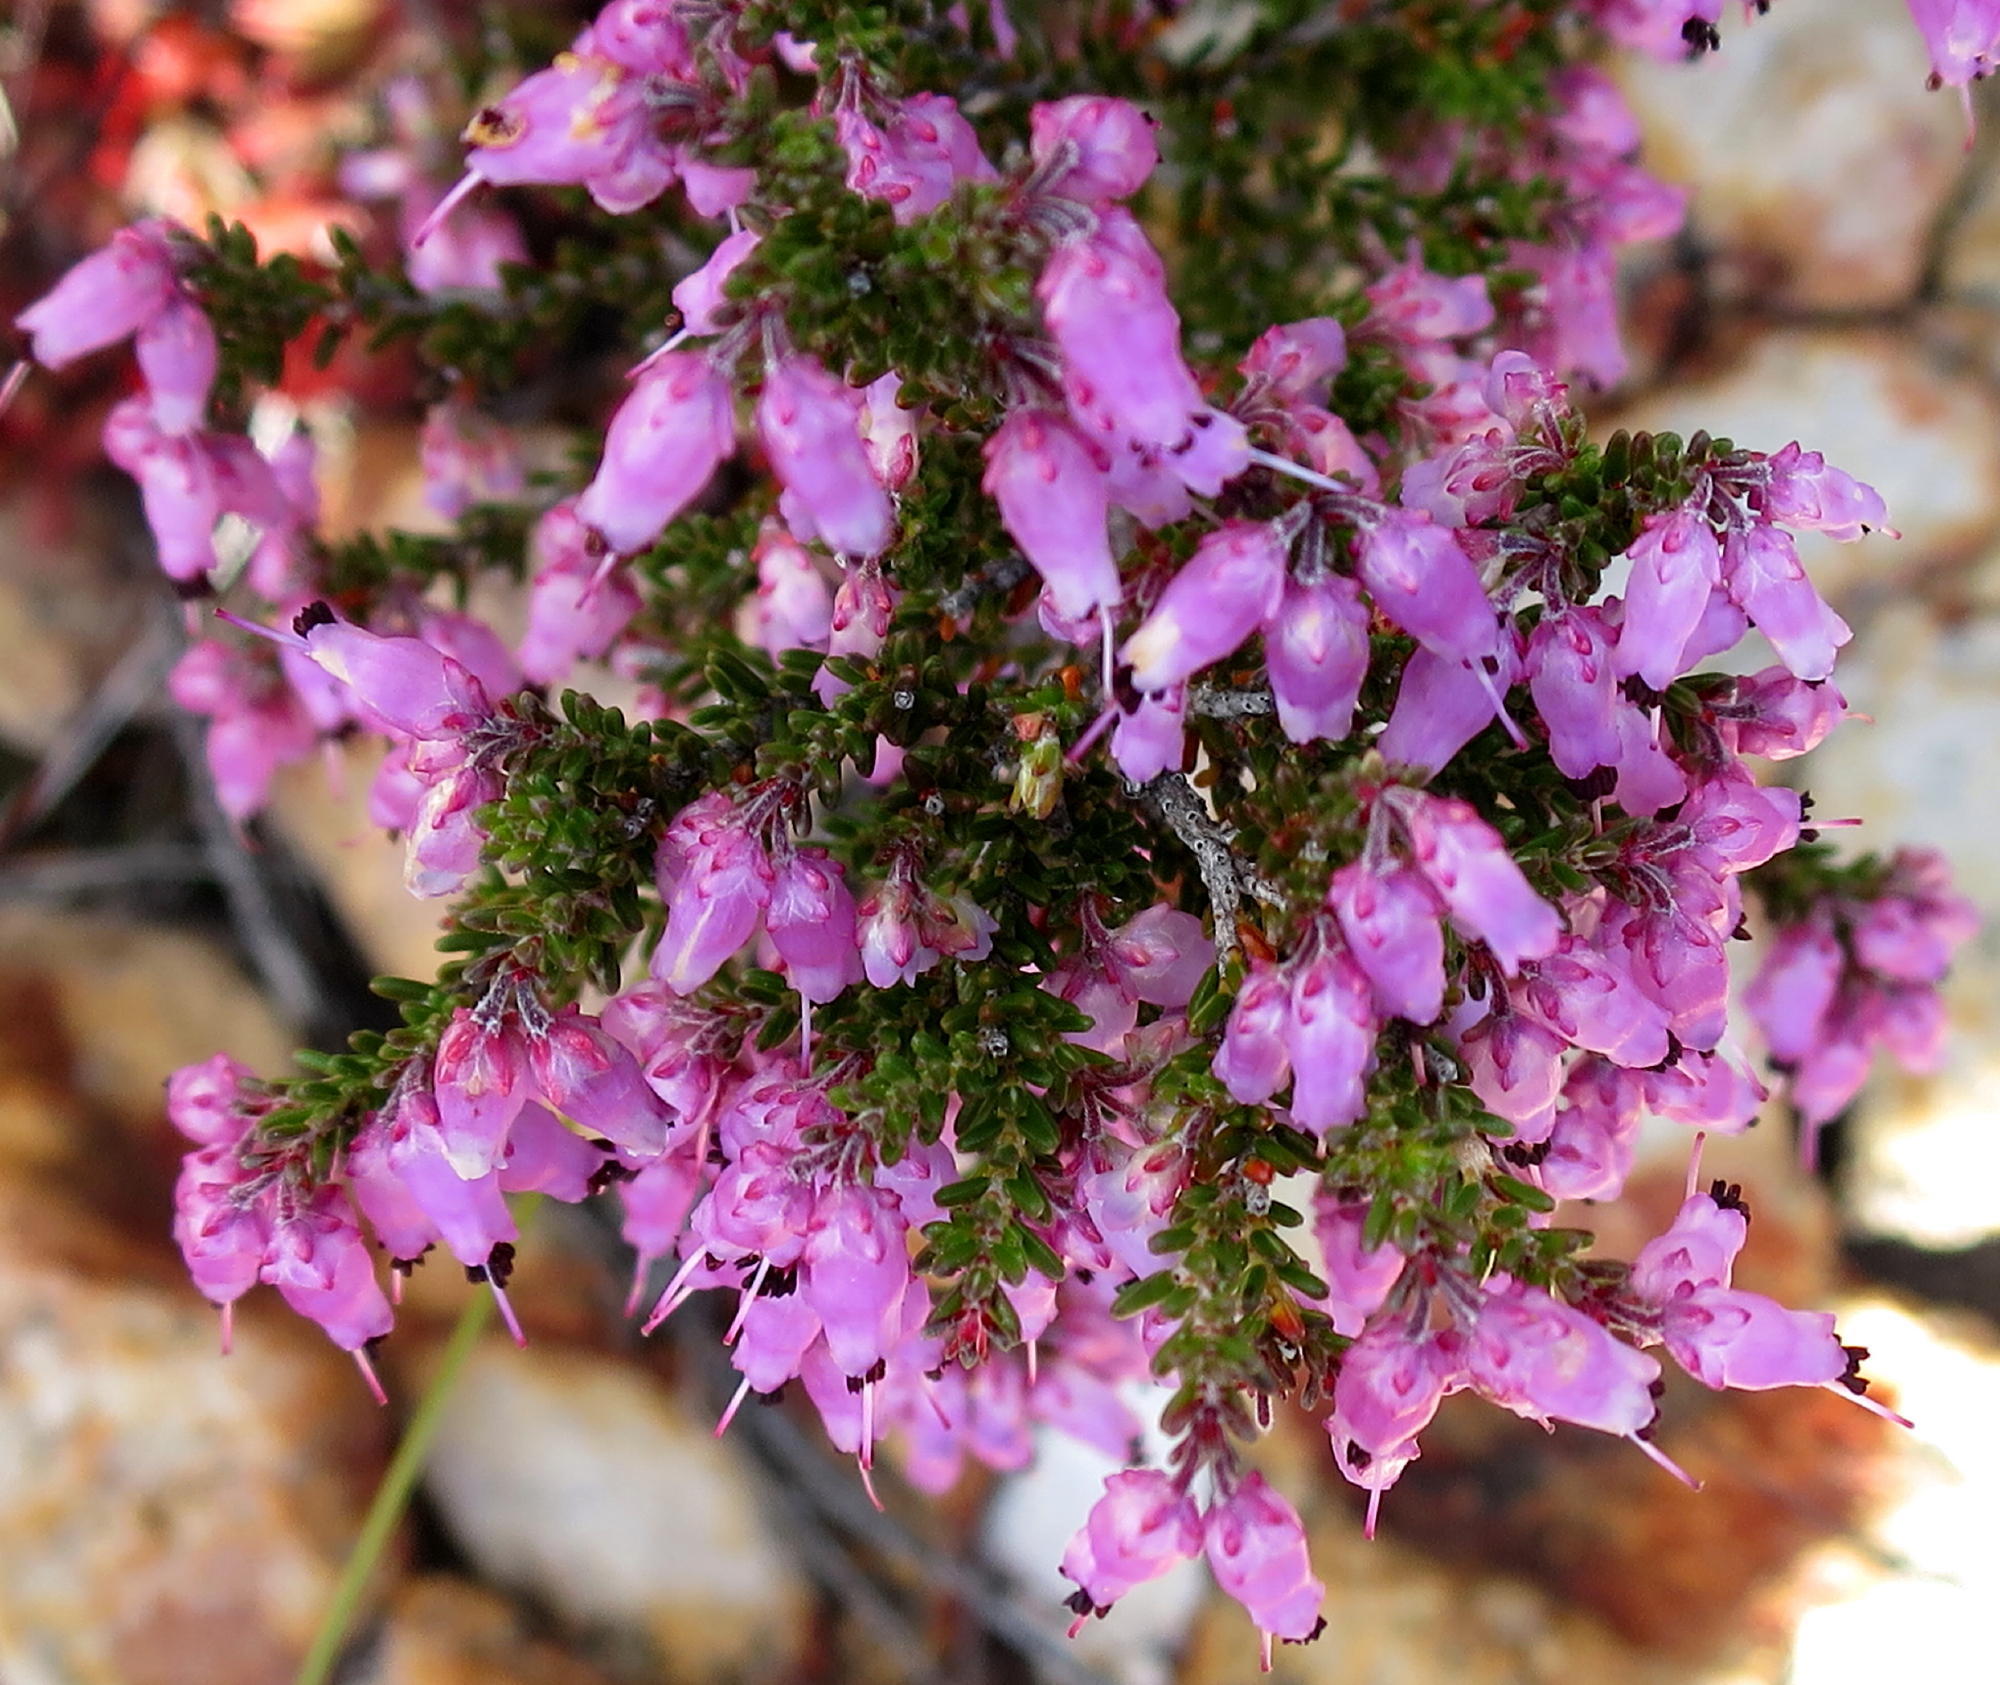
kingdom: Plantae
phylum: Tracheophyta
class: Magnoliopsida
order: Ericales
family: Ericaceae
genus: Erica
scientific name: Erica vlokii
